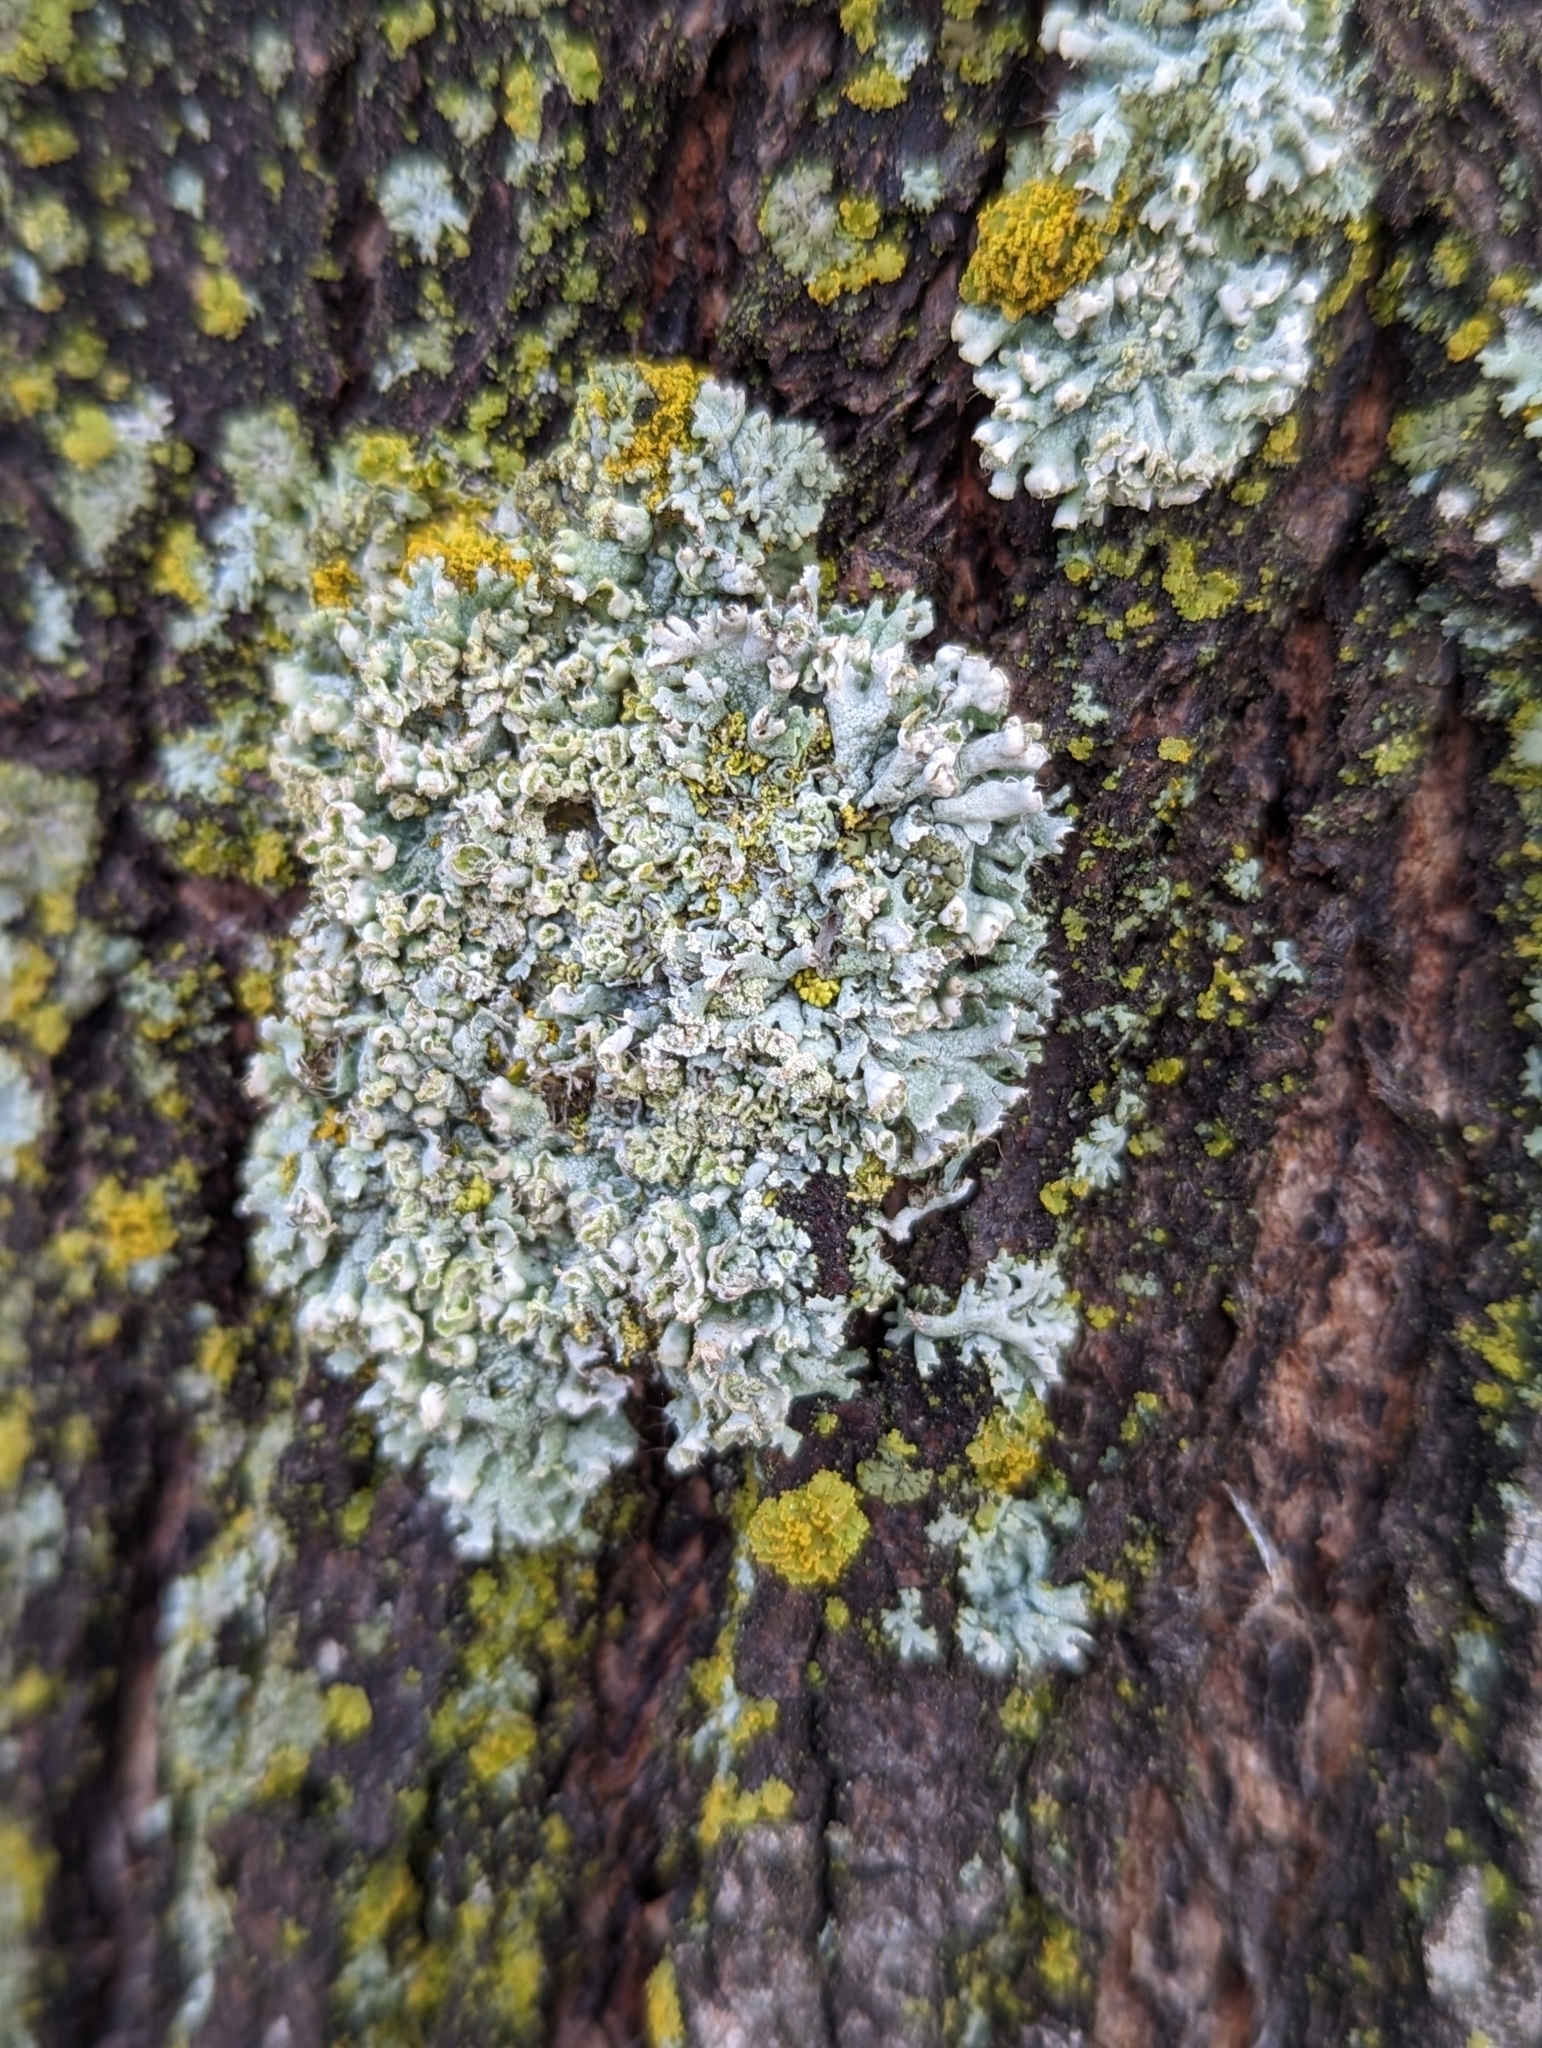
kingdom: Fungi
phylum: Ascomycota
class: Lecanoromycetes
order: Caliciales
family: Physciaceae
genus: Physcia
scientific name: Physcia adscendens
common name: Hooded rosette lichen
